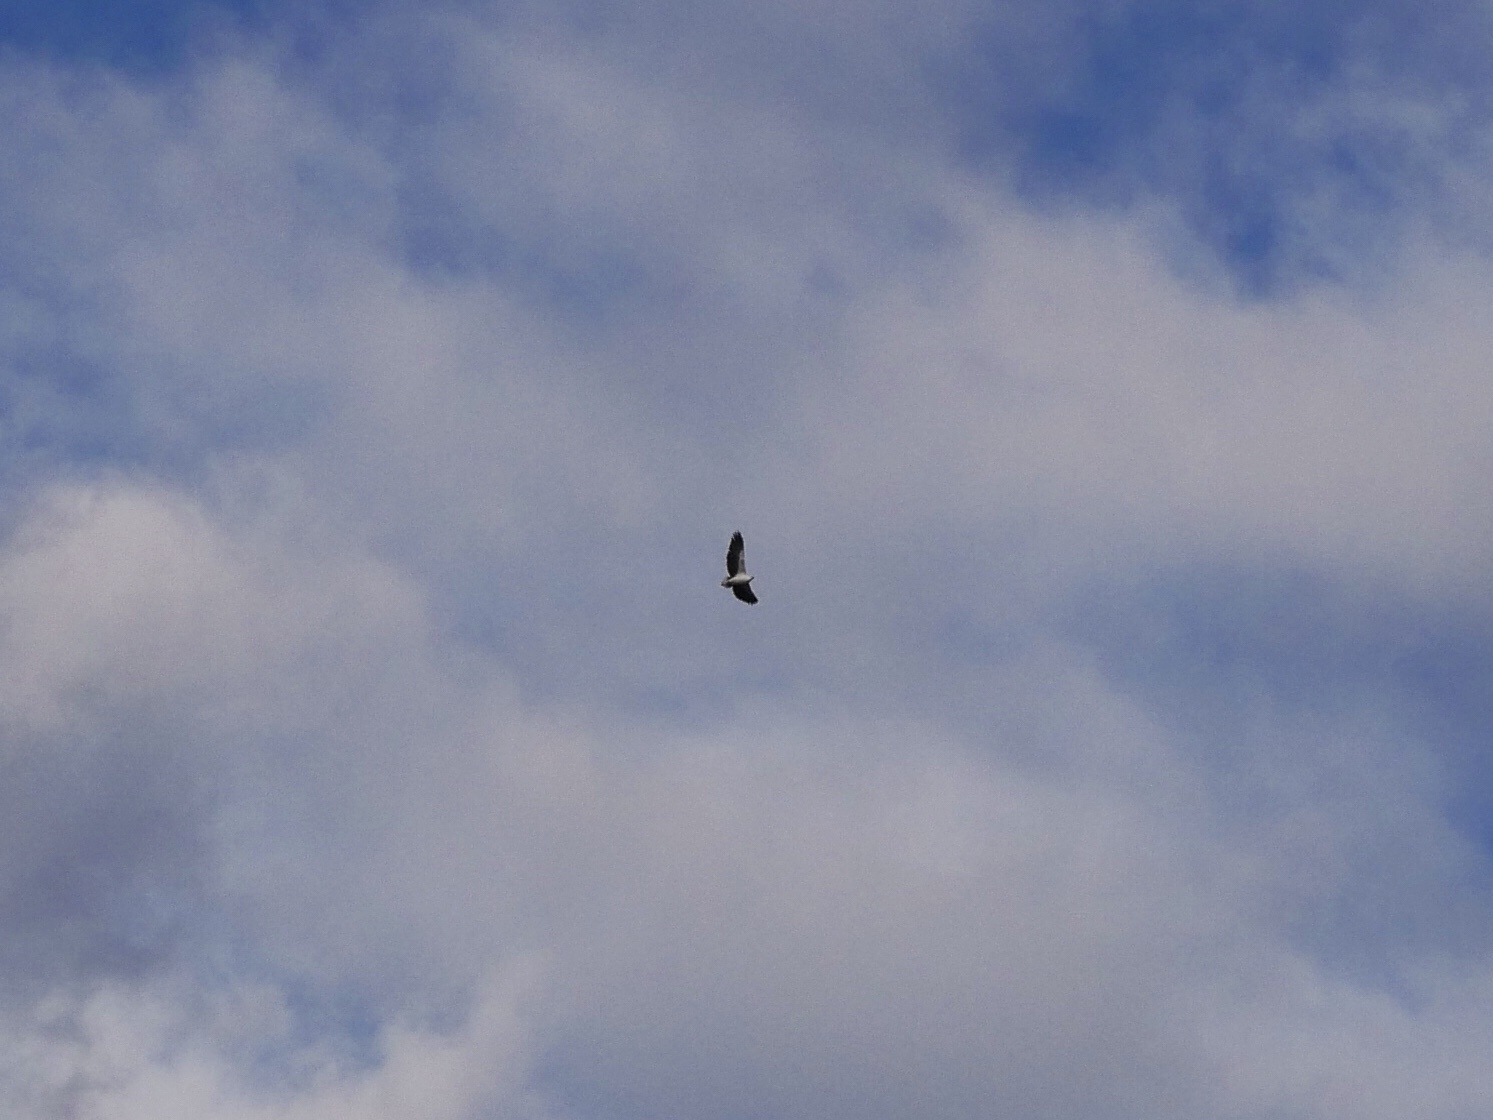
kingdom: Animalia
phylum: Chordata
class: Aves
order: Accipitriformes
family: Accipitridae
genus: Haliaeetus
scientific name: Haliaeetus leucogaster
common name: White-bellied sea eagle
